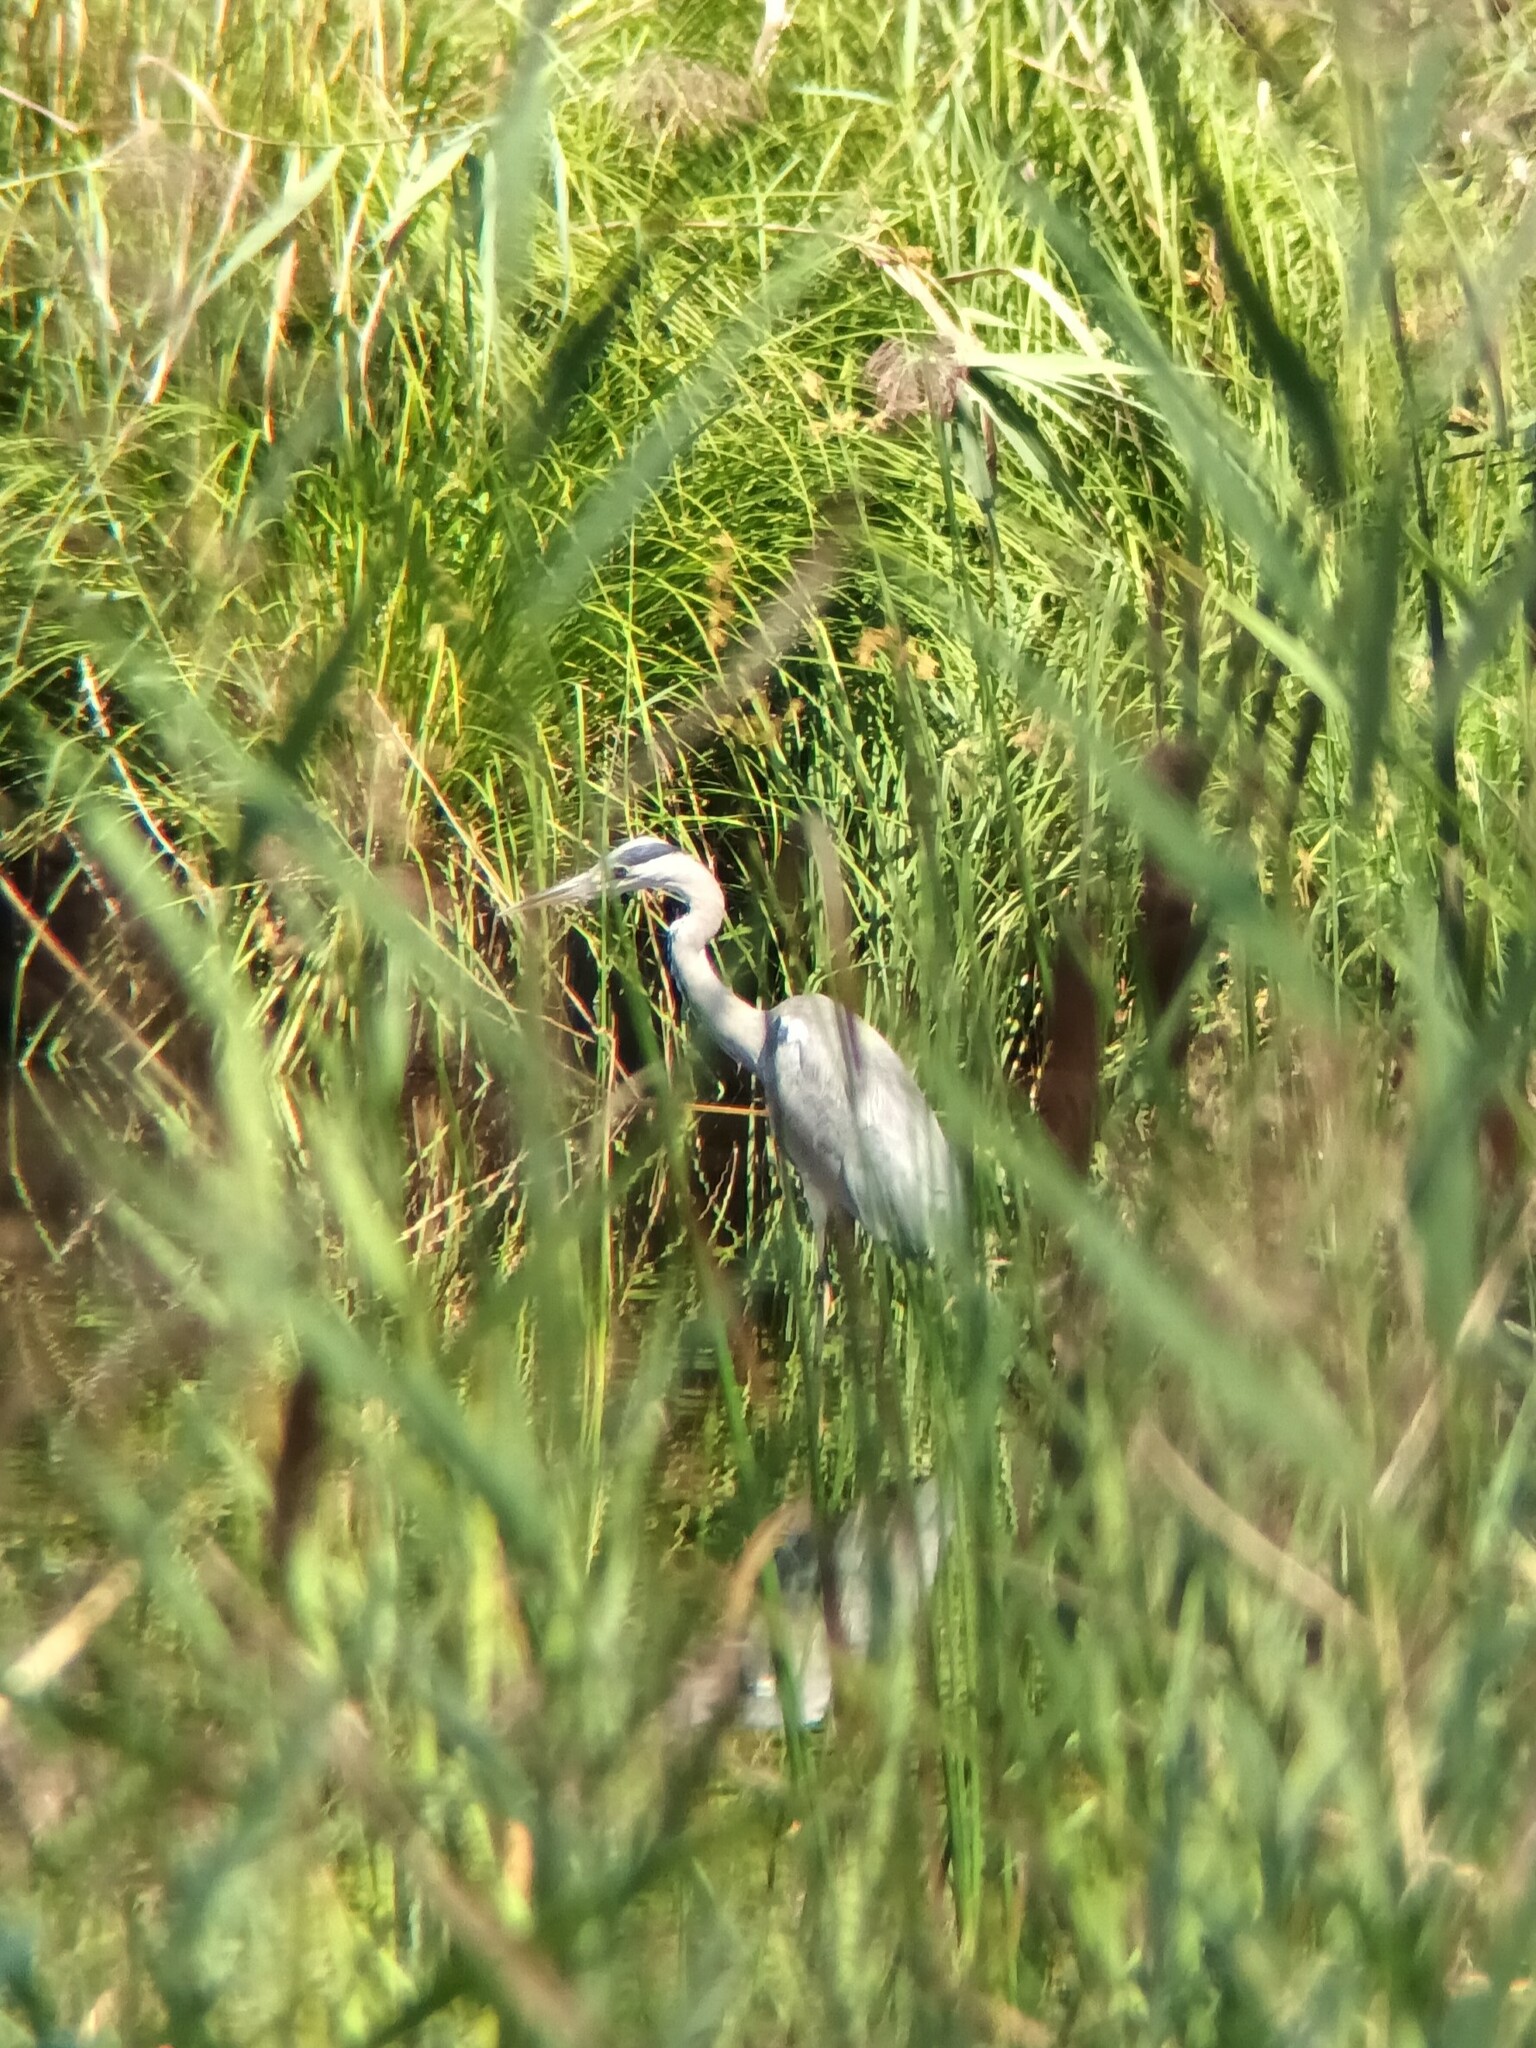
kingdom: Animalia
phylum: Chordata
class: Aves
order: Pelecaniformes
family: Ardeidae
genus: Ardea
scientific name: Ardea cinerea
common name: Grey heron
